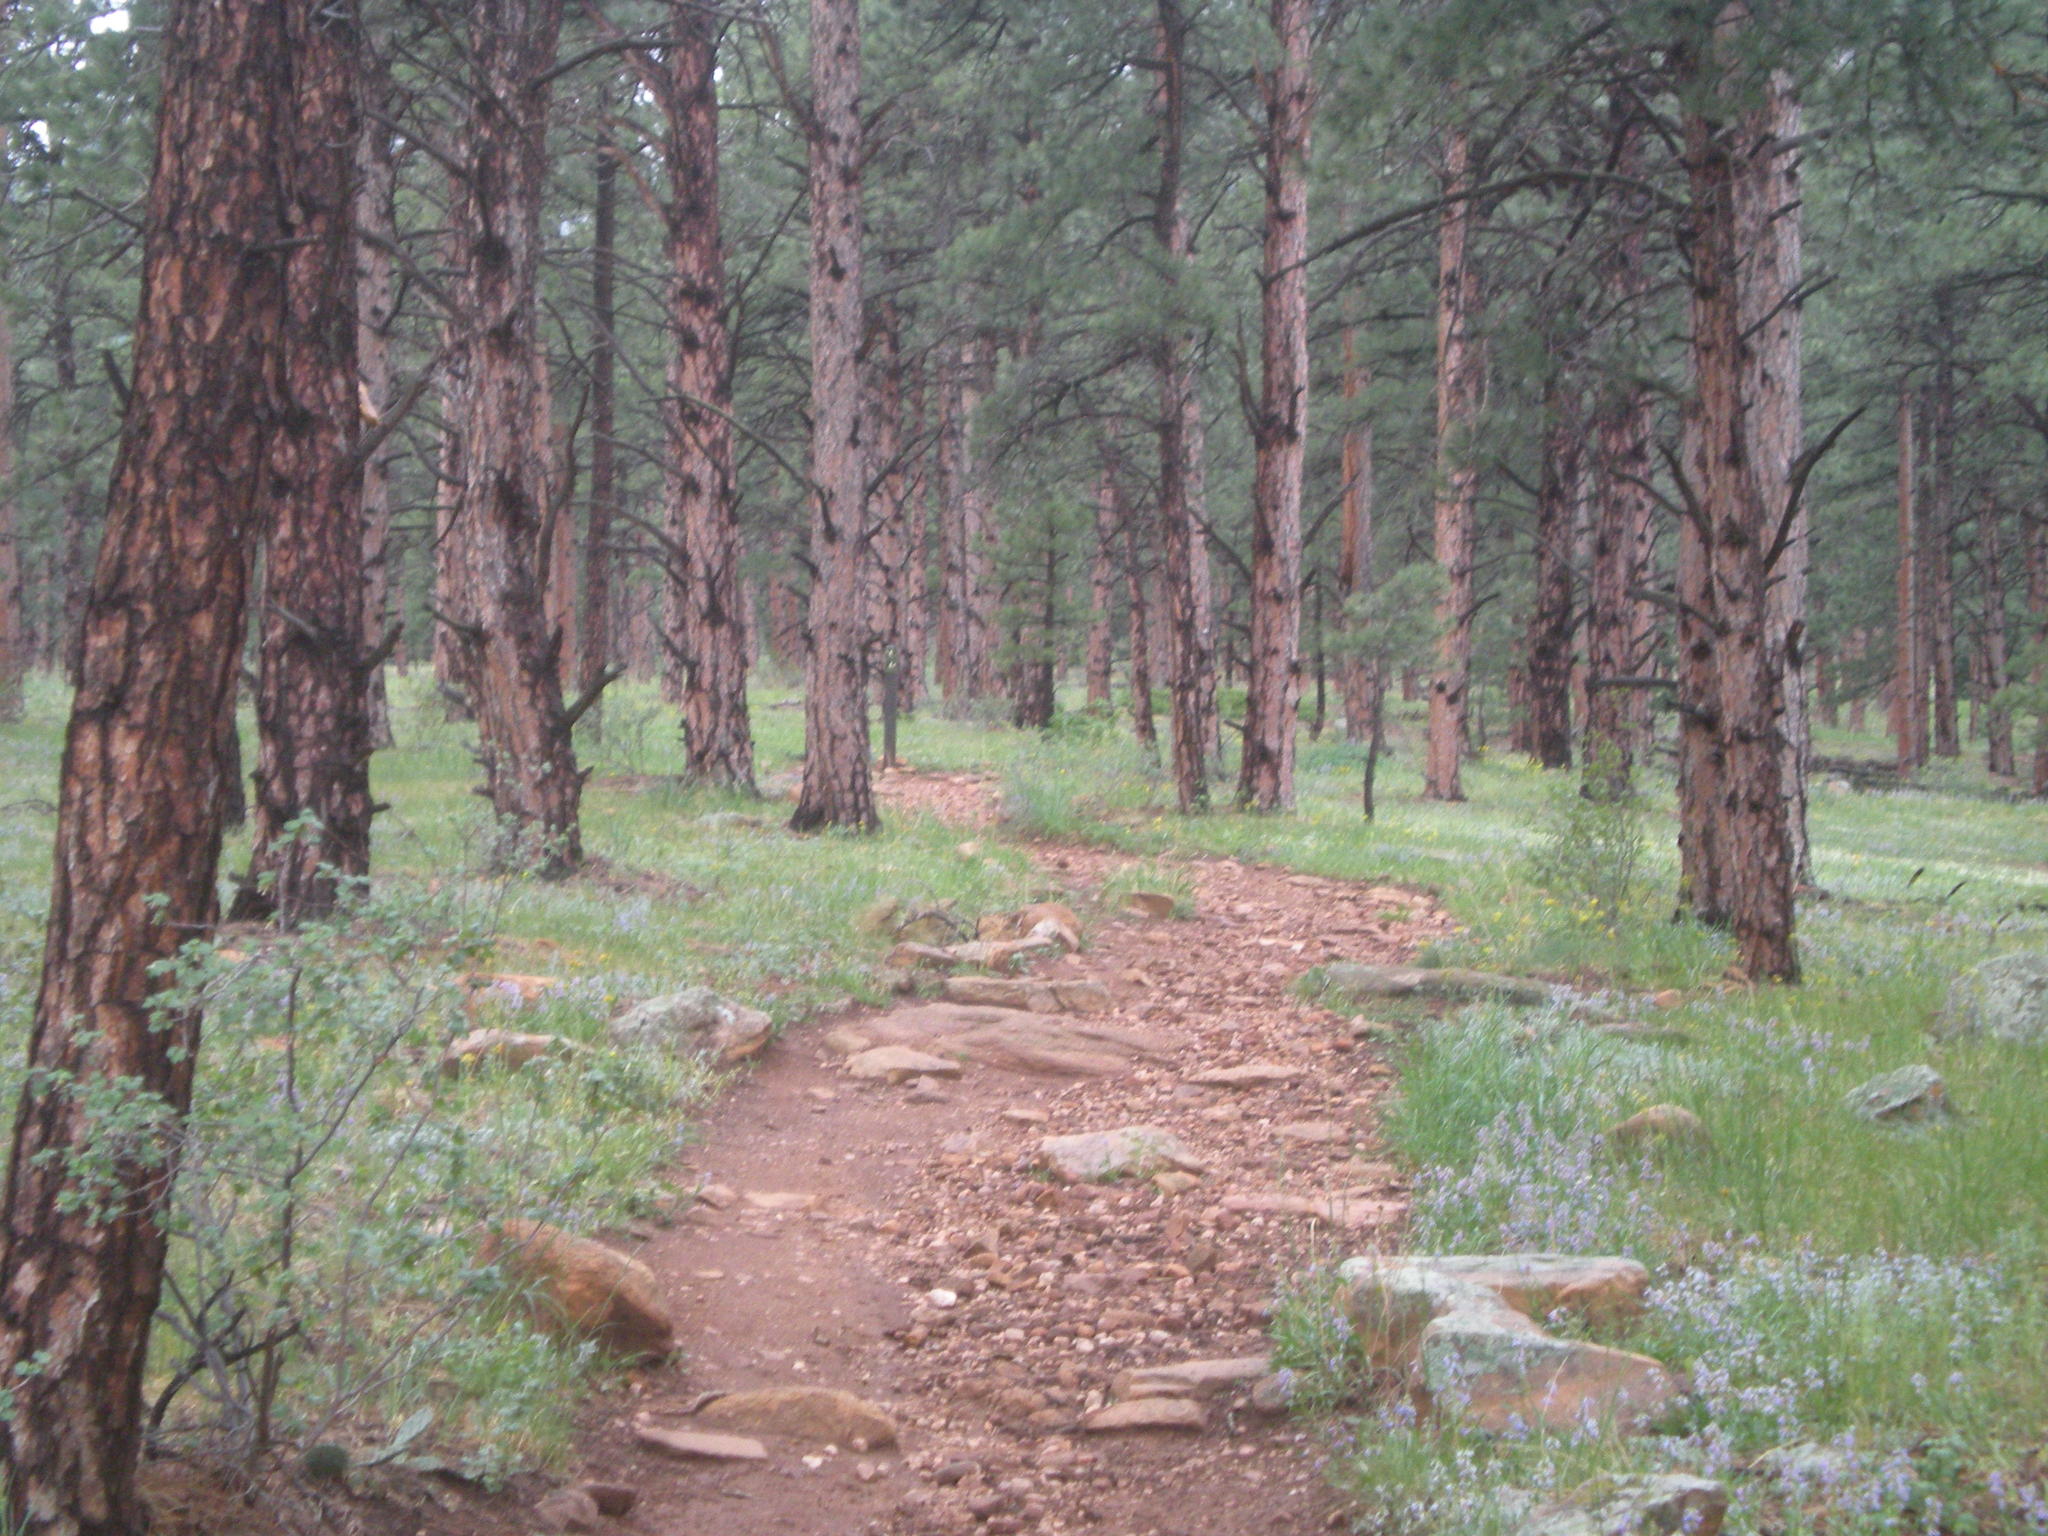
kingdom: Plantae
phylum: Tracheophyta
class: Pinopsida
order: Pinales
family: Pinaceae
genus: Pinus
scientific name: Pinus ponderosa
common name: Western yellow-pine
